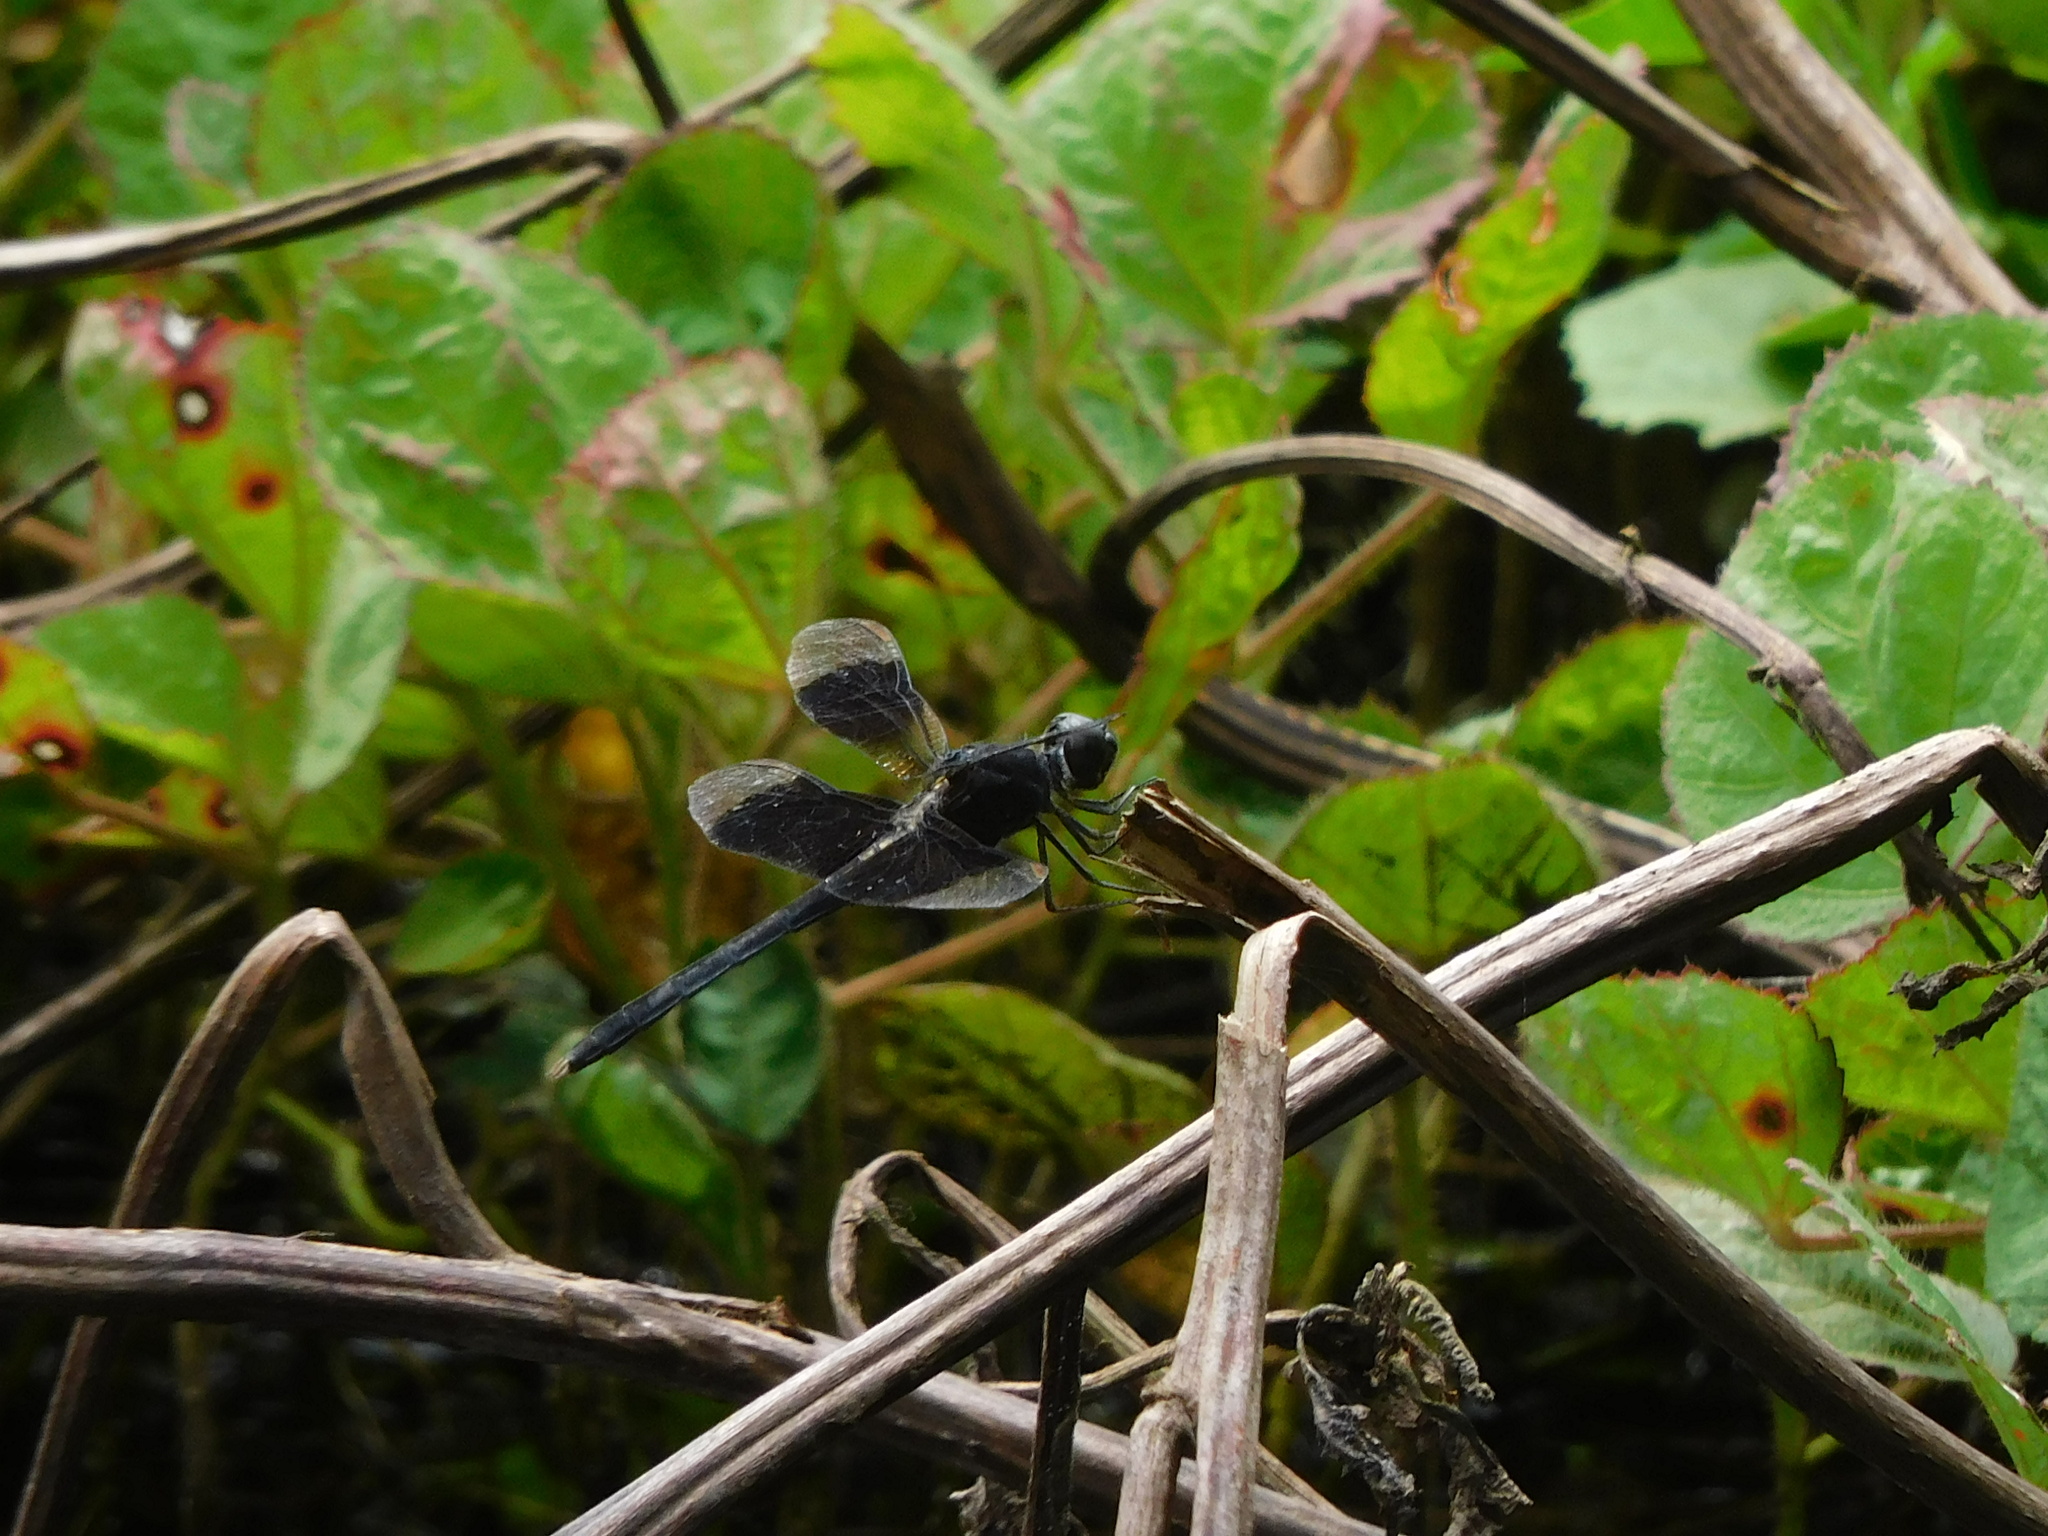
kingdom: Animalia
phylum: Arthropoda
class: Insecta
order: Odonata
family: Libellulidae
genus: Erythrodiplax
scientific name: Erythrodiplax funerea
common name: Black-winged dragonlet
